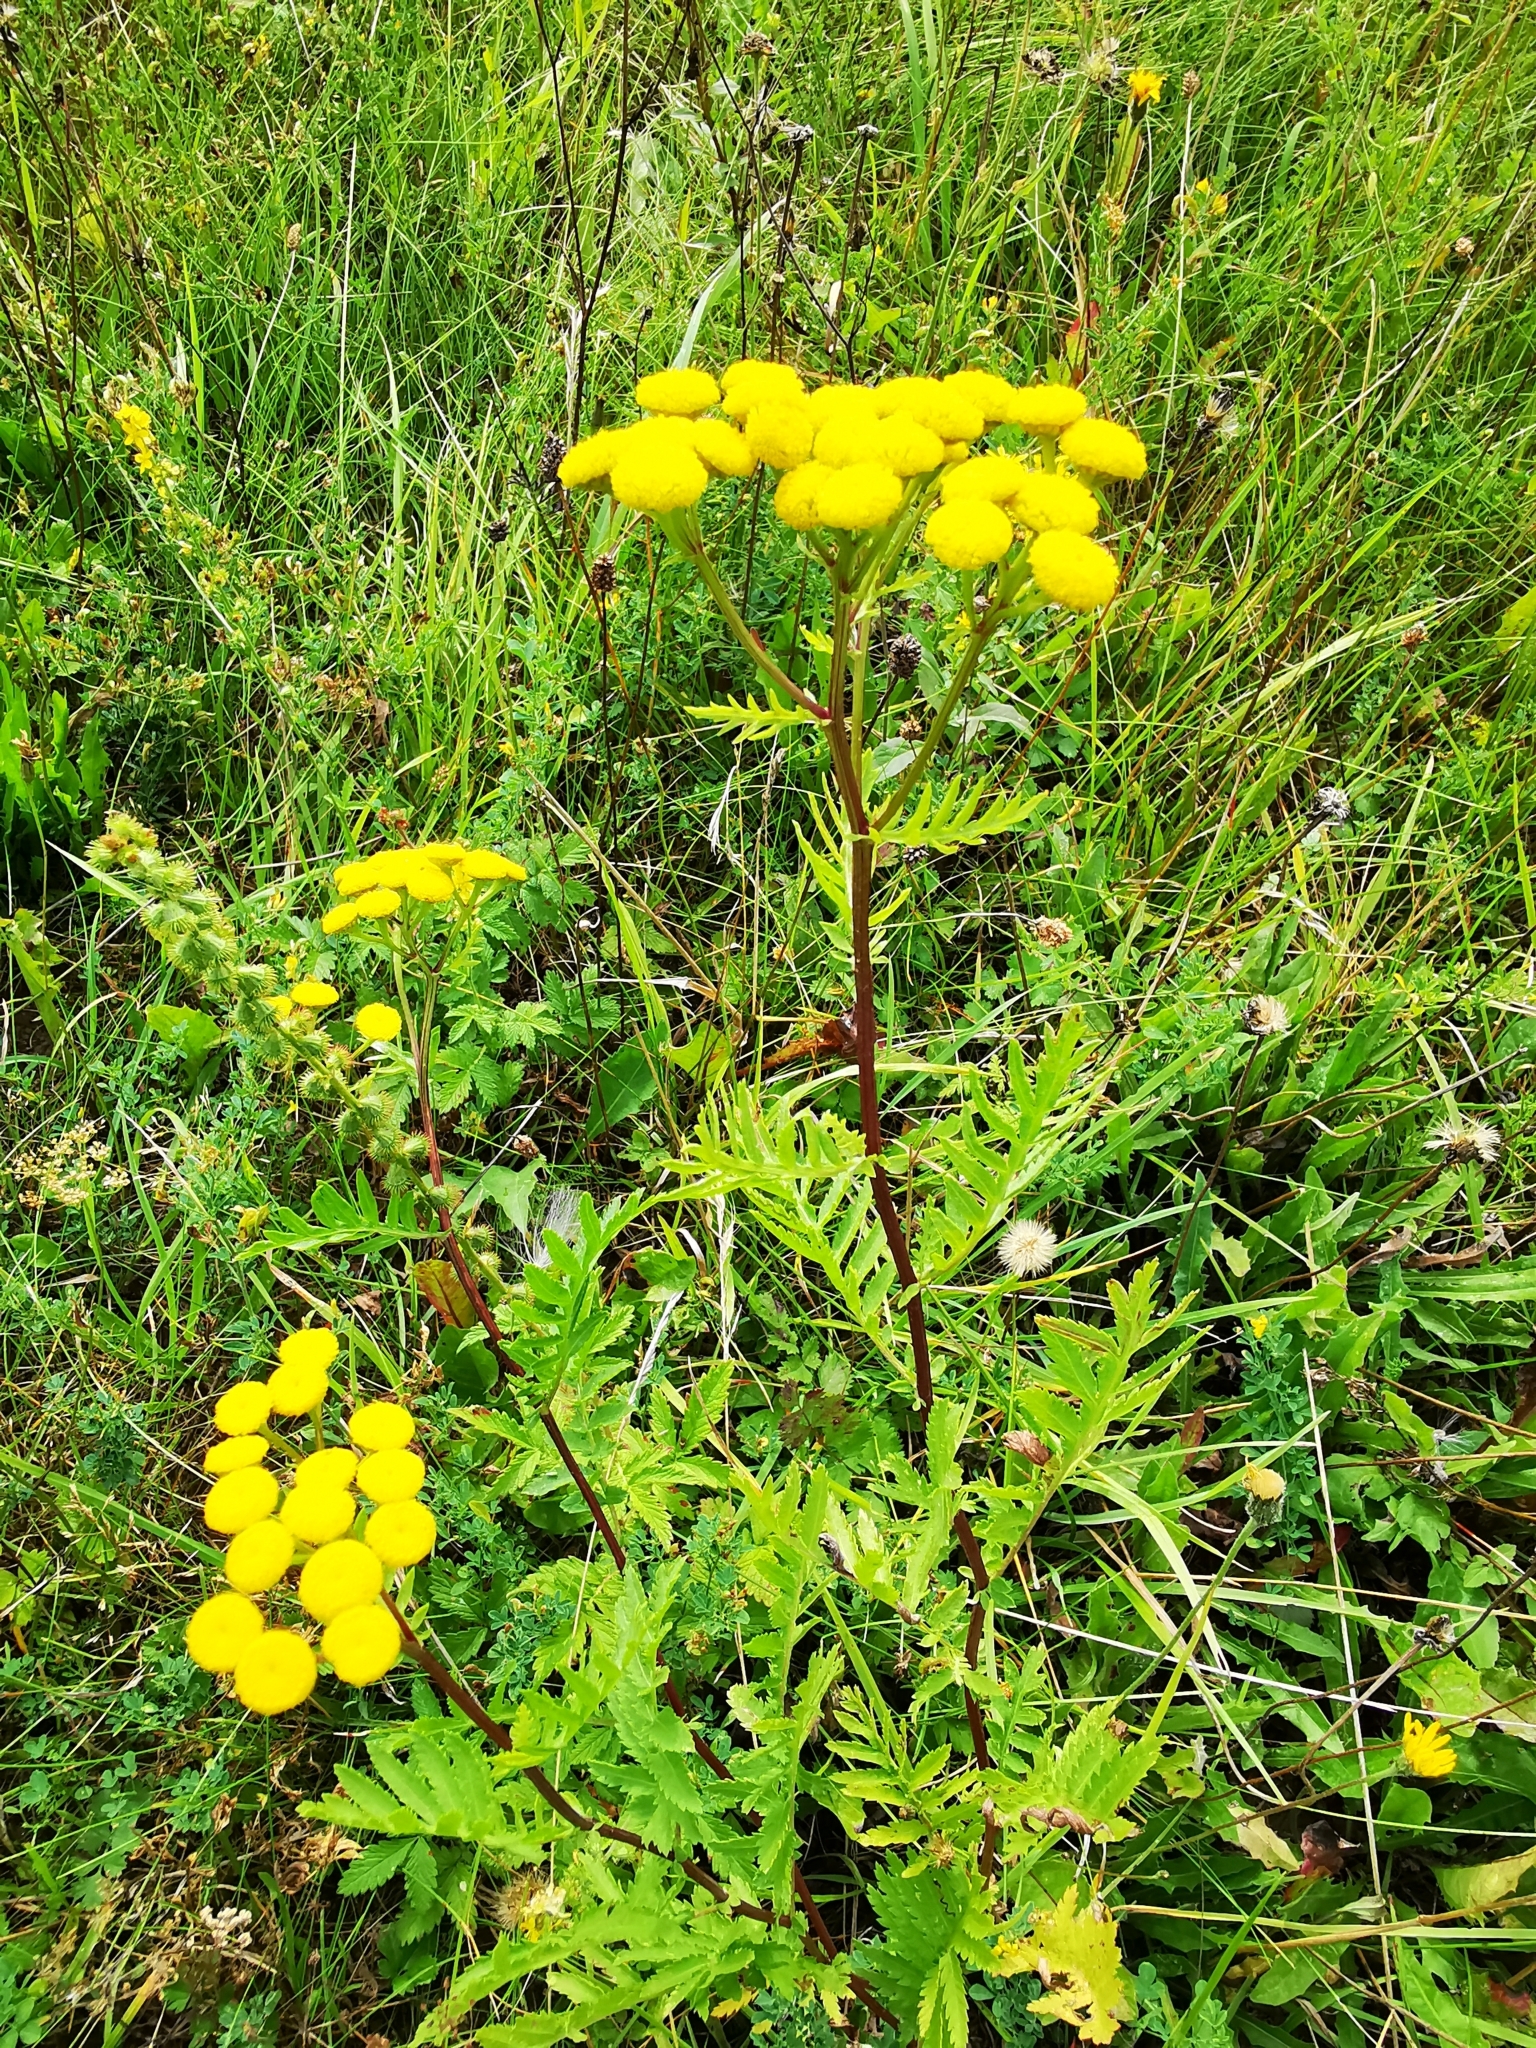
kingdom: Plantae
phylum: Tracheophyta
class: Magnoliopsida
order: Asterales
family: Asteraceae
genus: Tanacetum
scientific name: Tanacetum vulgare
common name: Common tansy
